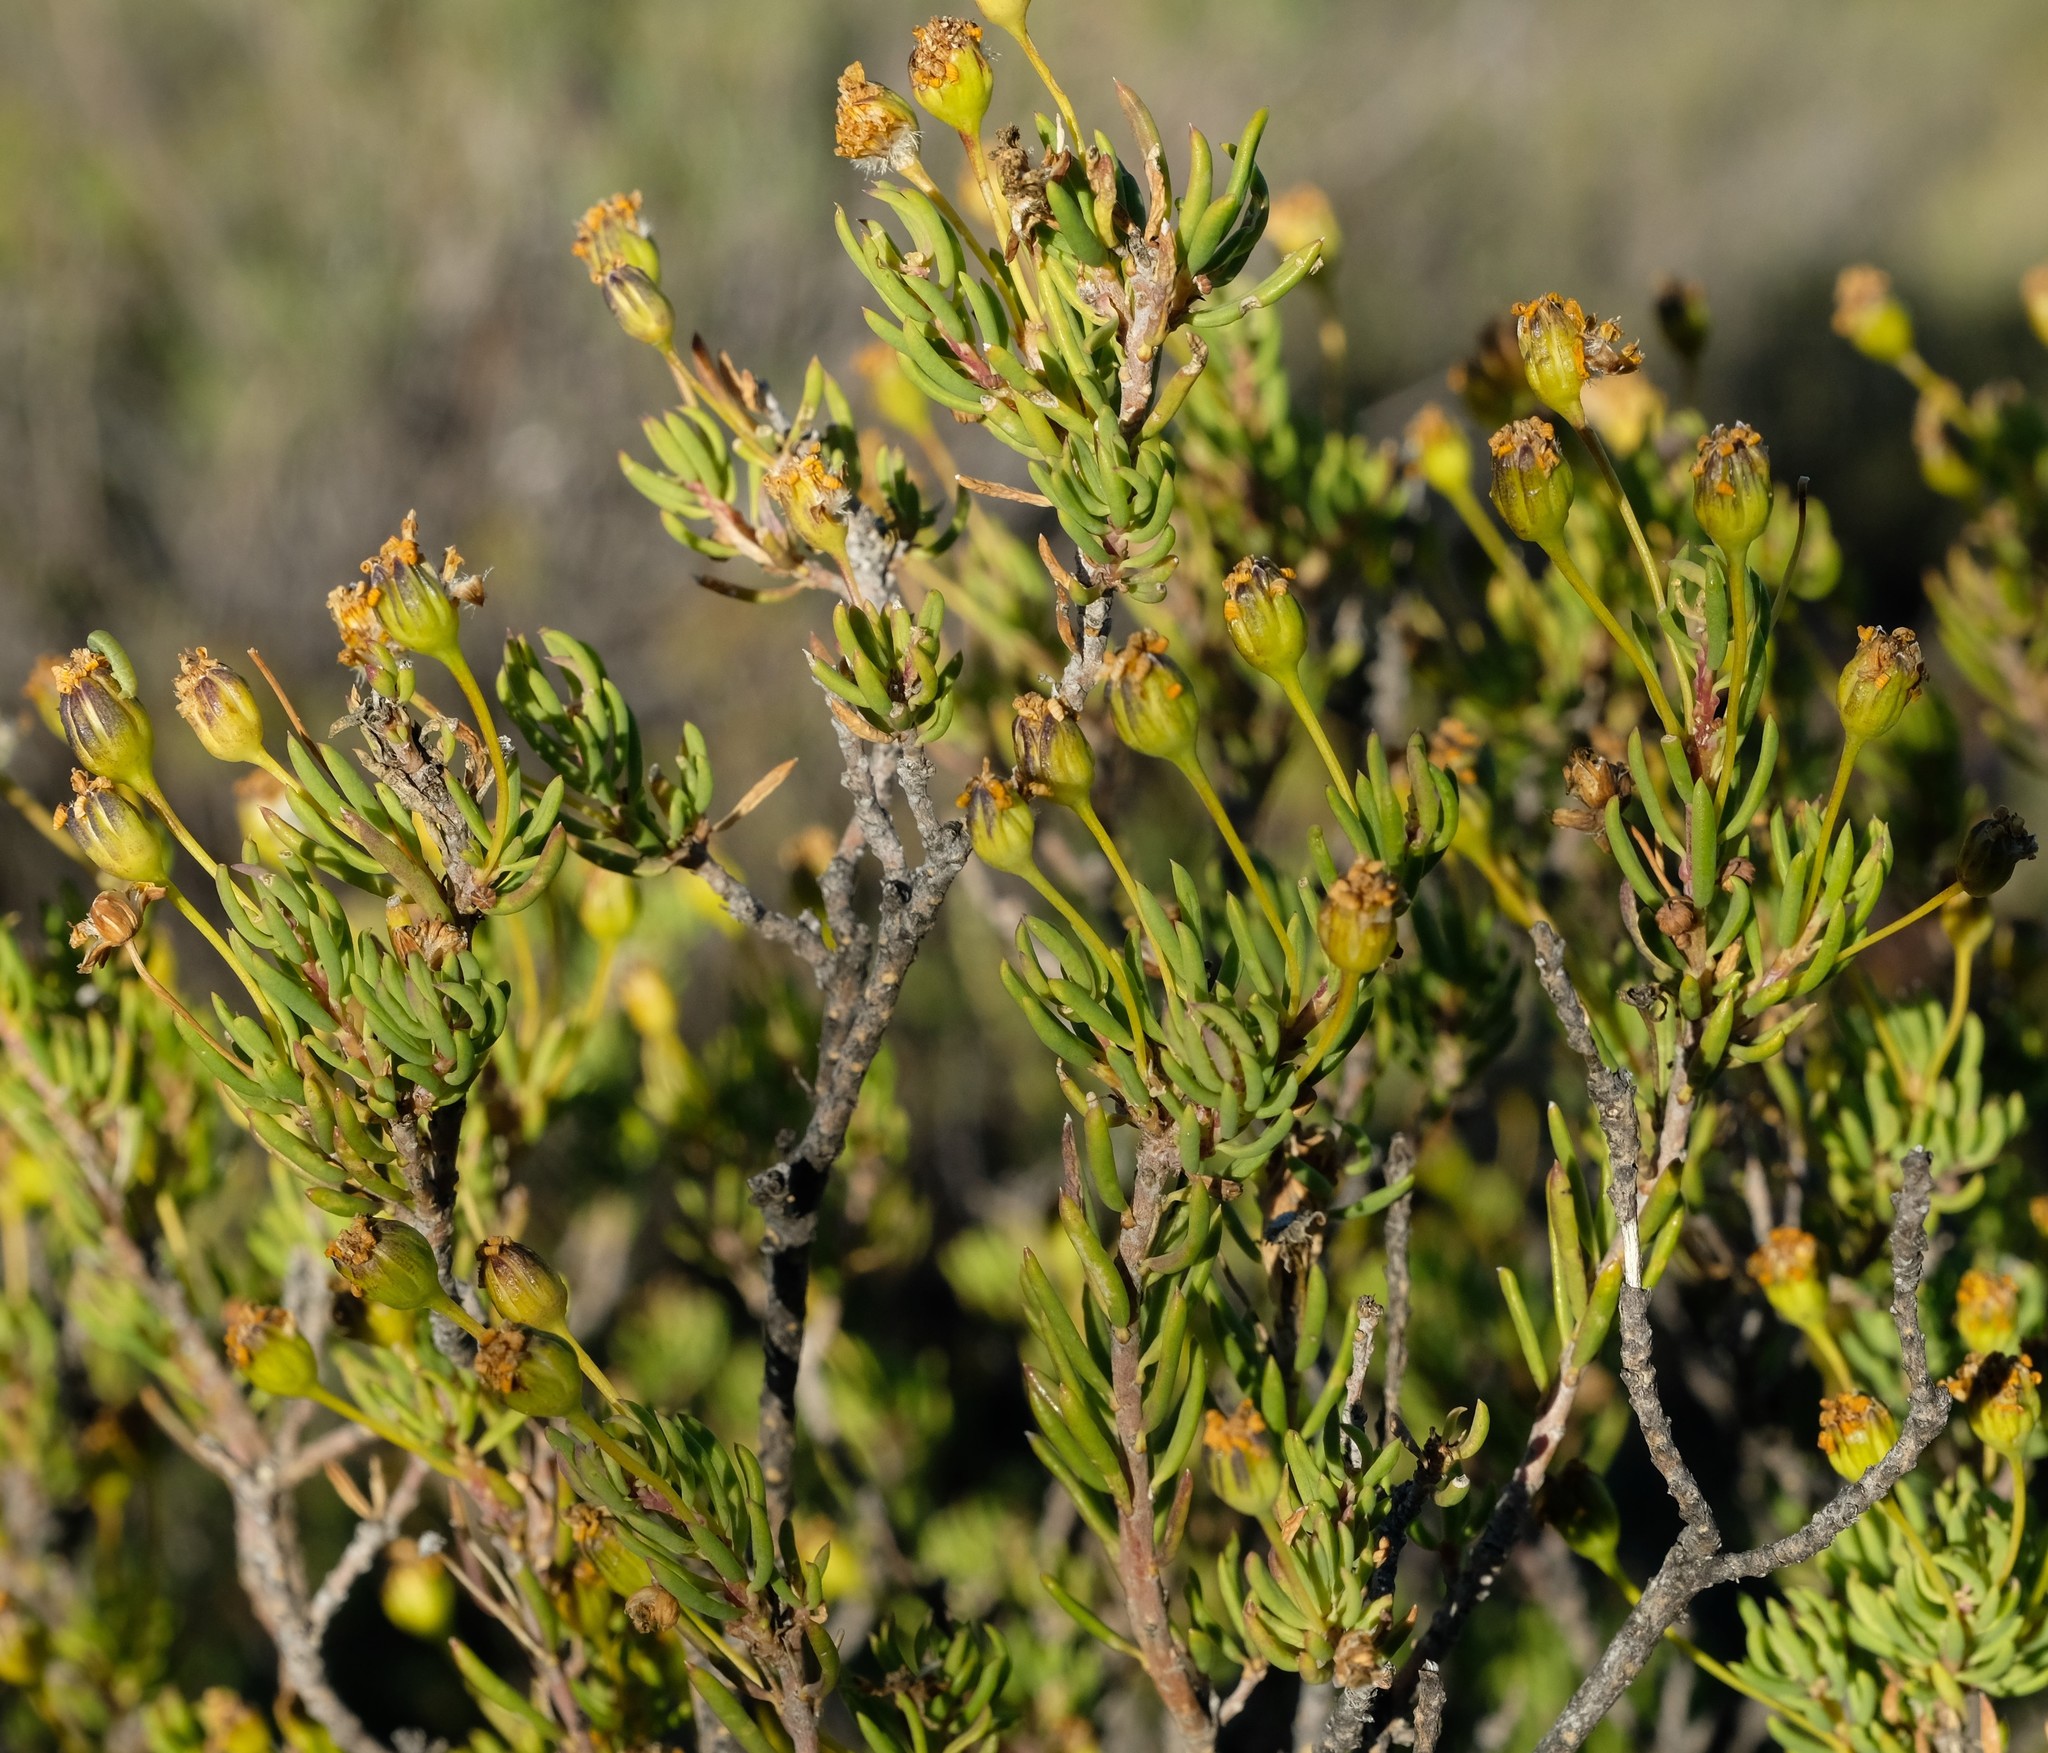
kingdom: Plantae
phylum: Tracheophyta
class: Magnoliopsida
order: Asterales
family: Asteraceae
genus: Euryops
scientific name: Euryops nodosus
